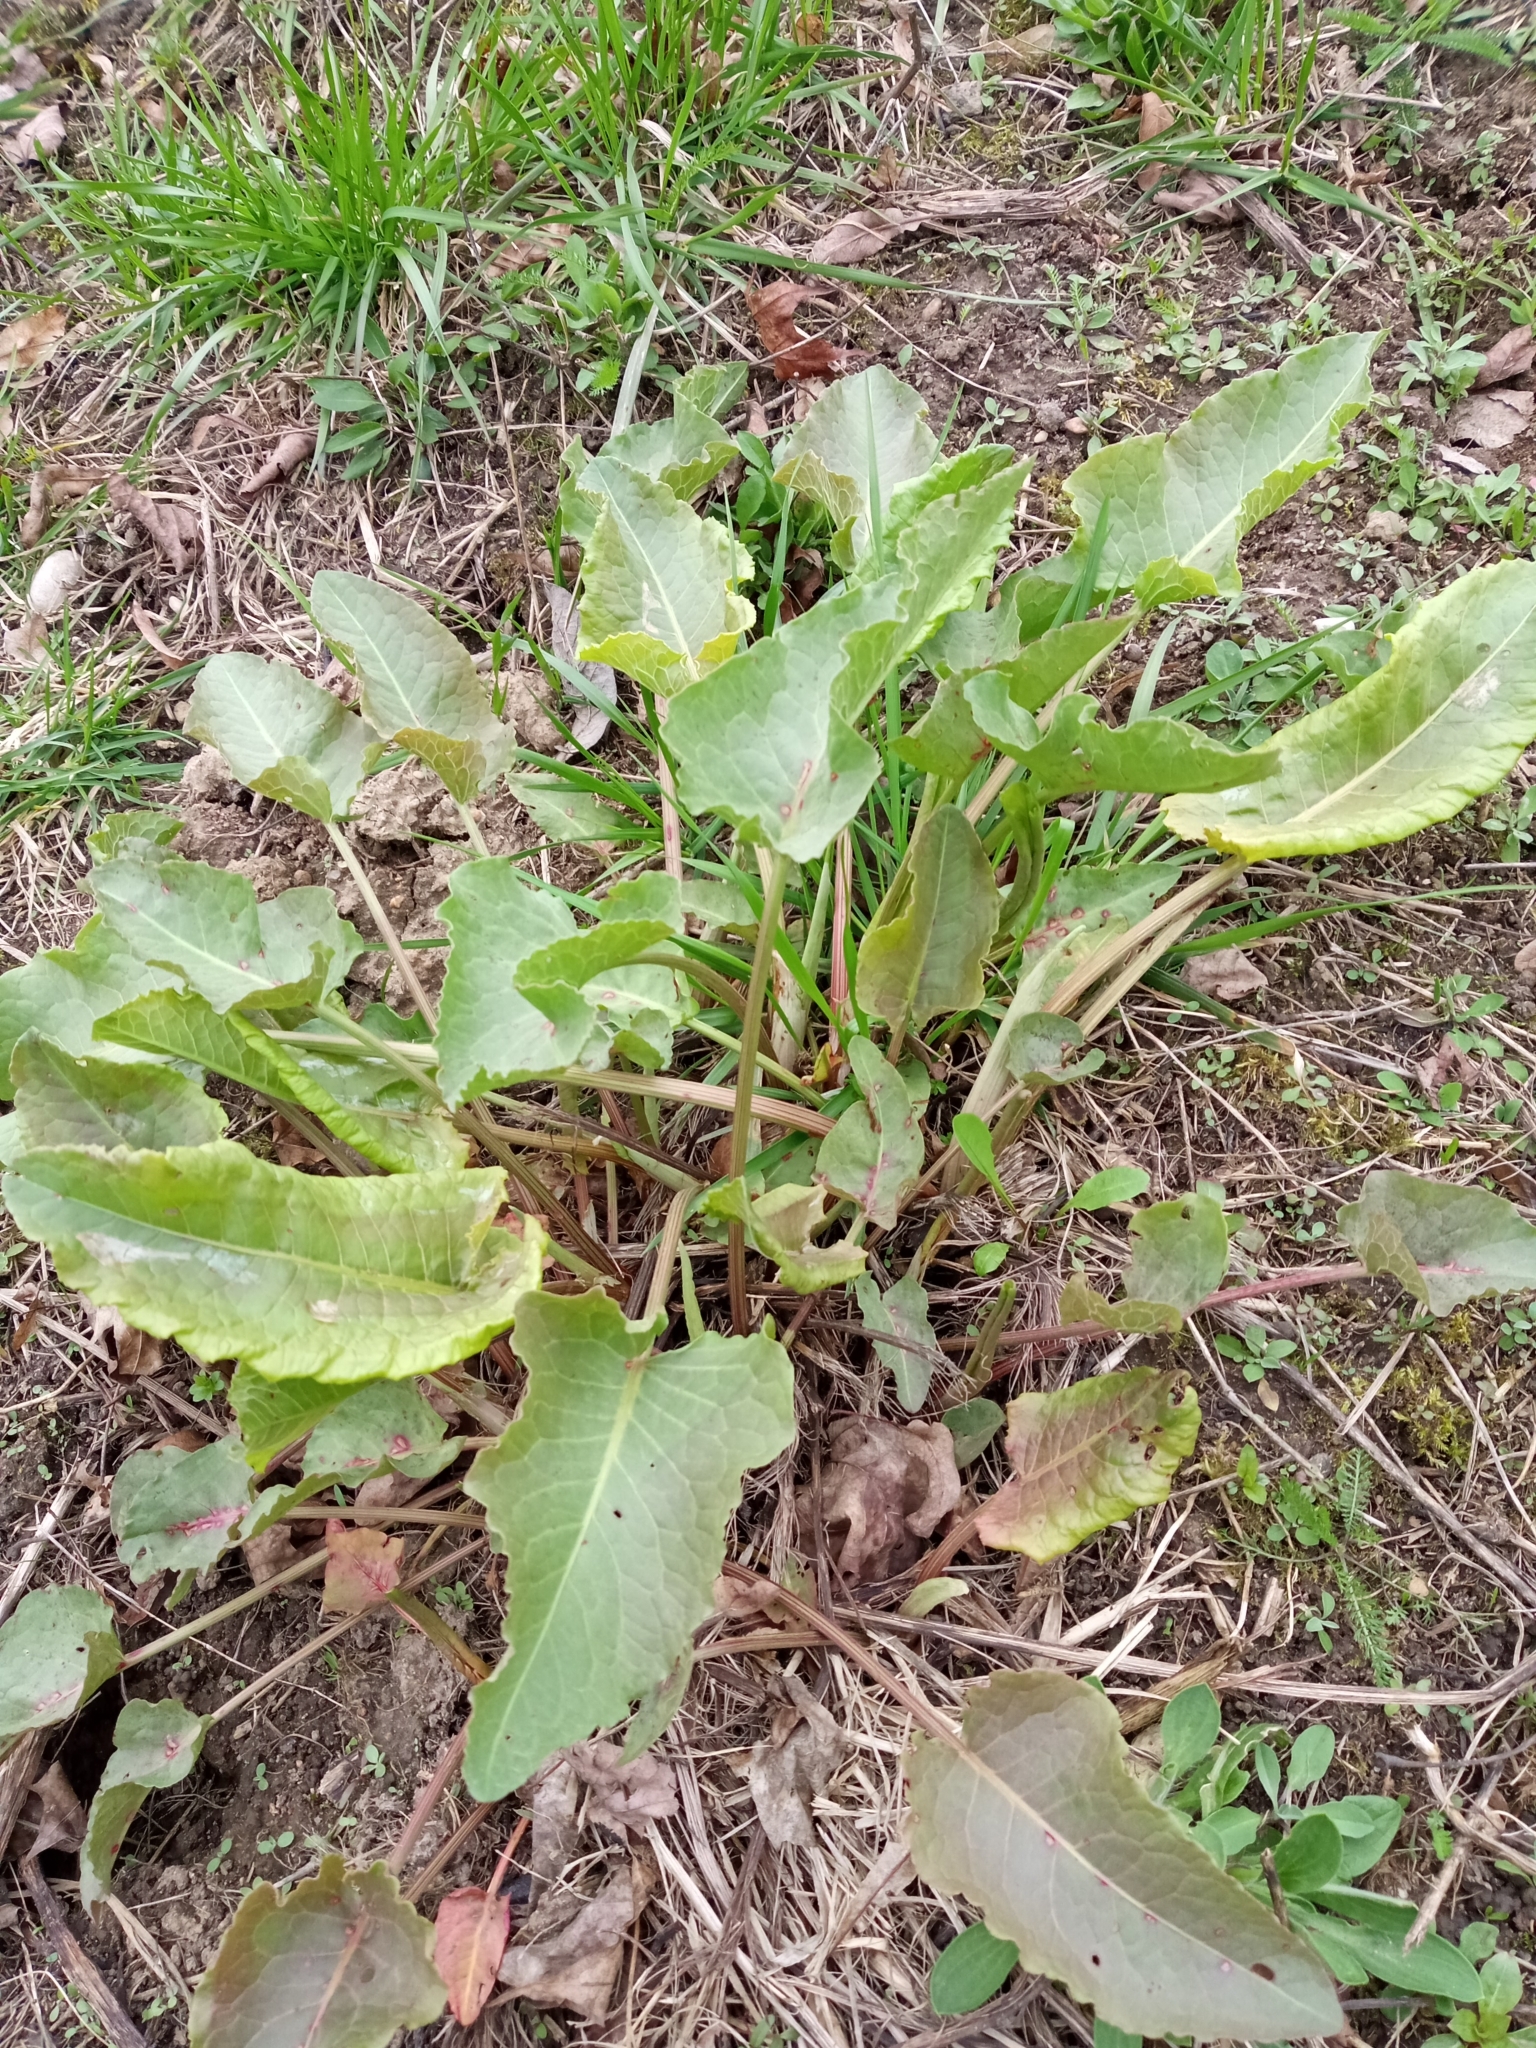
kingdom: Plantae
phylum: Tracheophyta
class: Magnoliopsida
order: Caryophyllales
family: Polygonaceae
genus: Rumex
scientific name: Rumex confertus
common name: Russian dock
